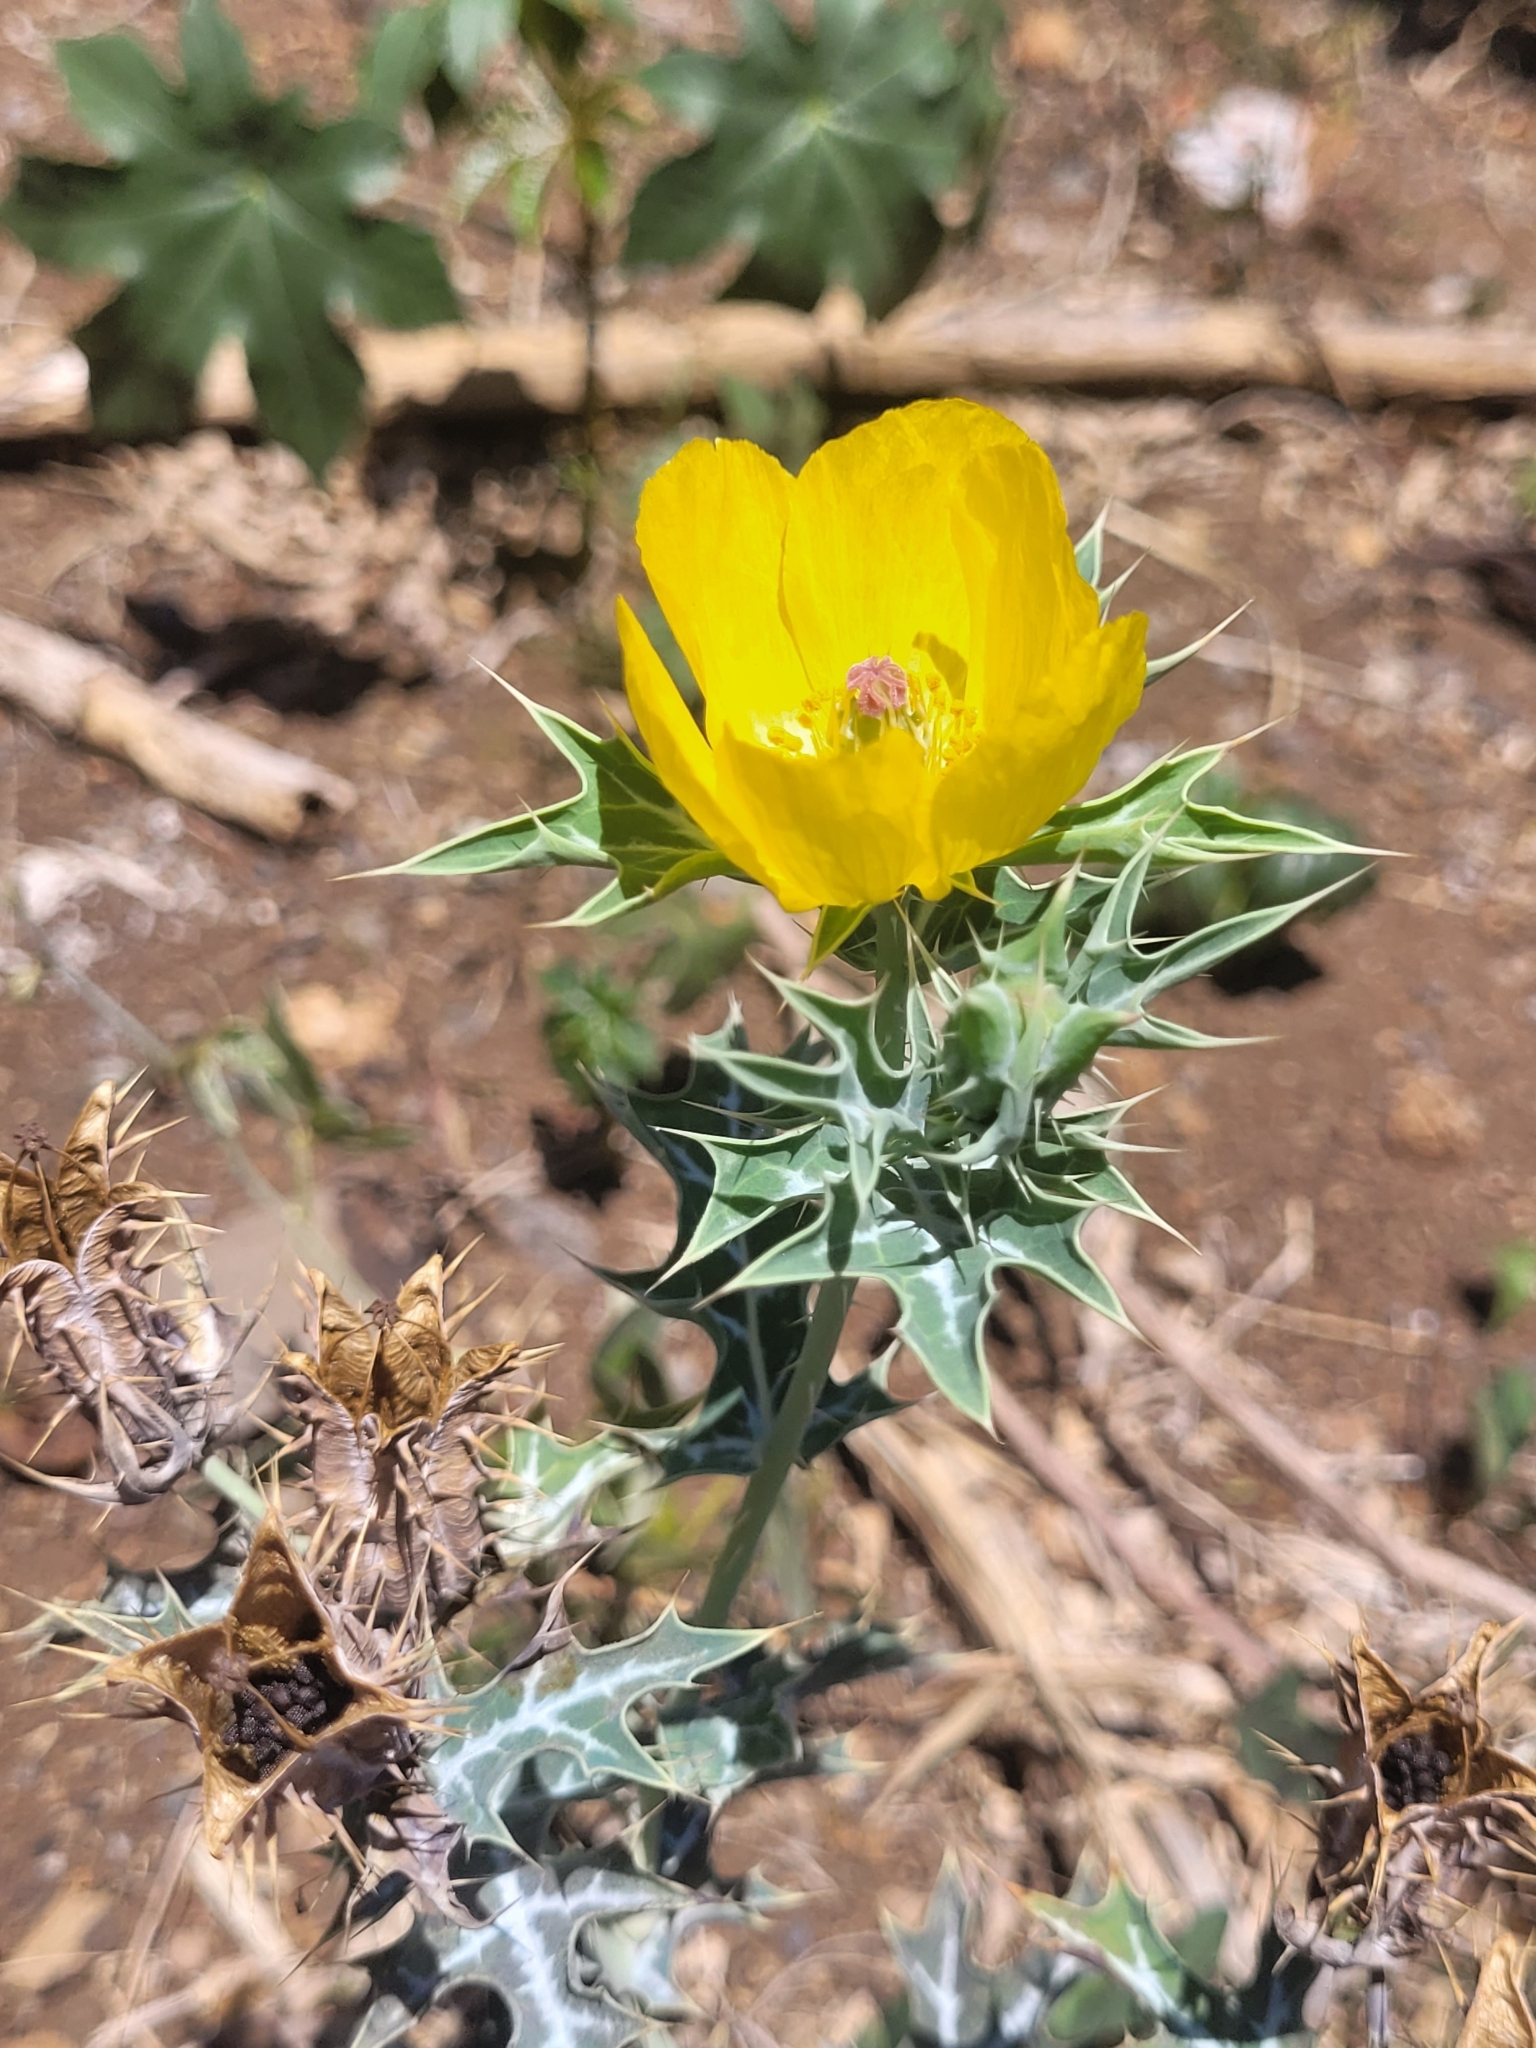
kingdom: Plantae
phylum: Tracheophyta
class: Magnoliopsida
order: Ranunculales
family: Papaveraceae
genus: Argemone
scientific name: Argemone mexicana
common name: Mexican poppy
